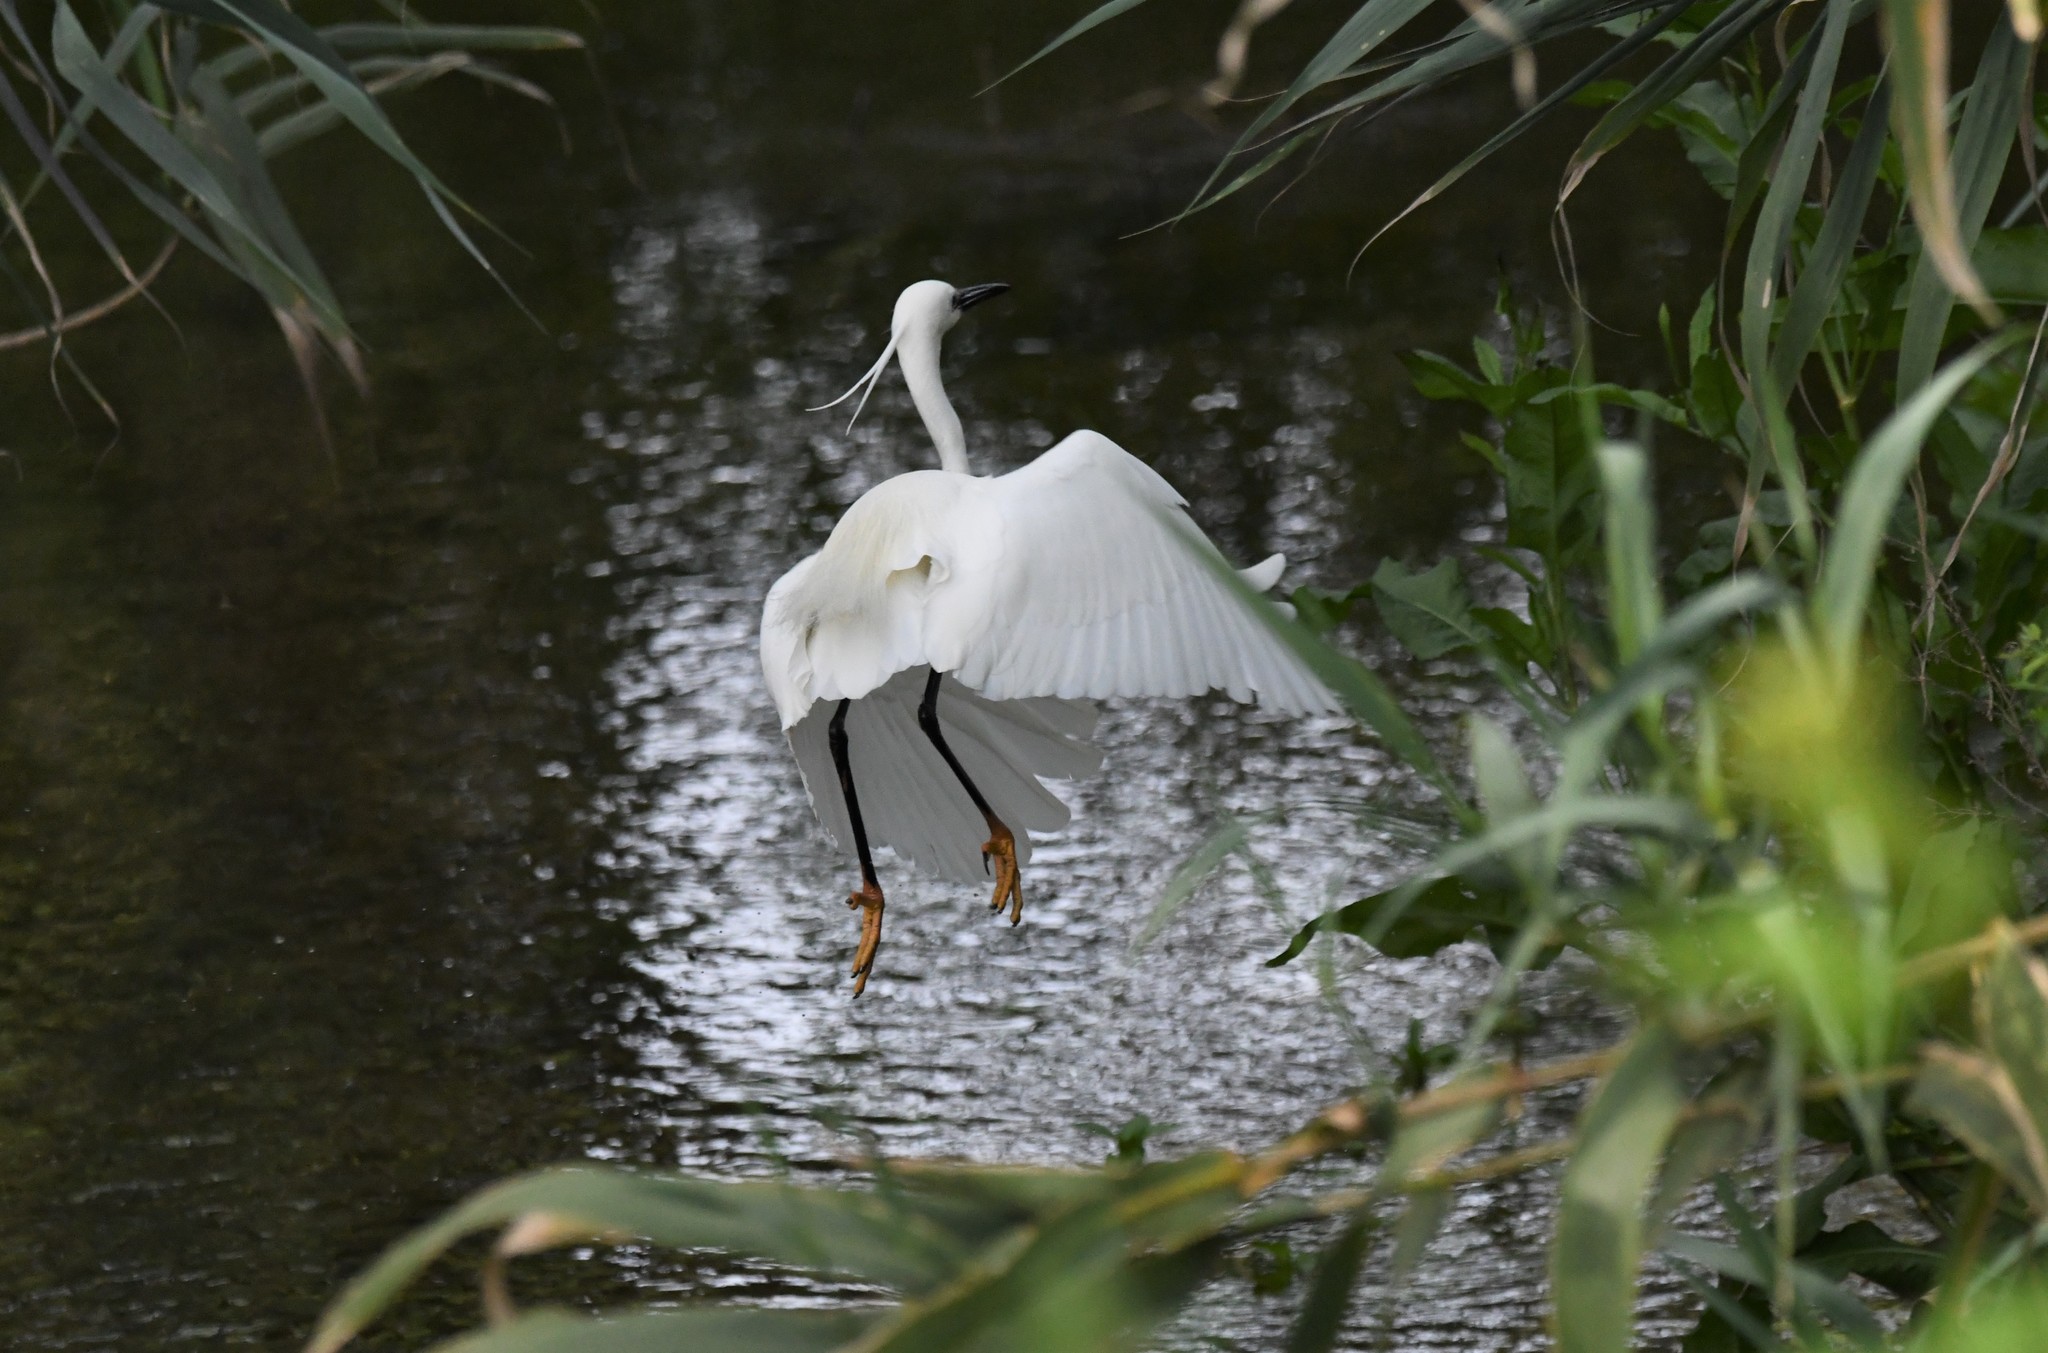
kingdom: Animalia
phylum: Chordata
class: Aves
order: Pelecaniformes
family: Ardeidae
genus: Egretta
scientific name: Egretta garzetta
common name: Little egret
